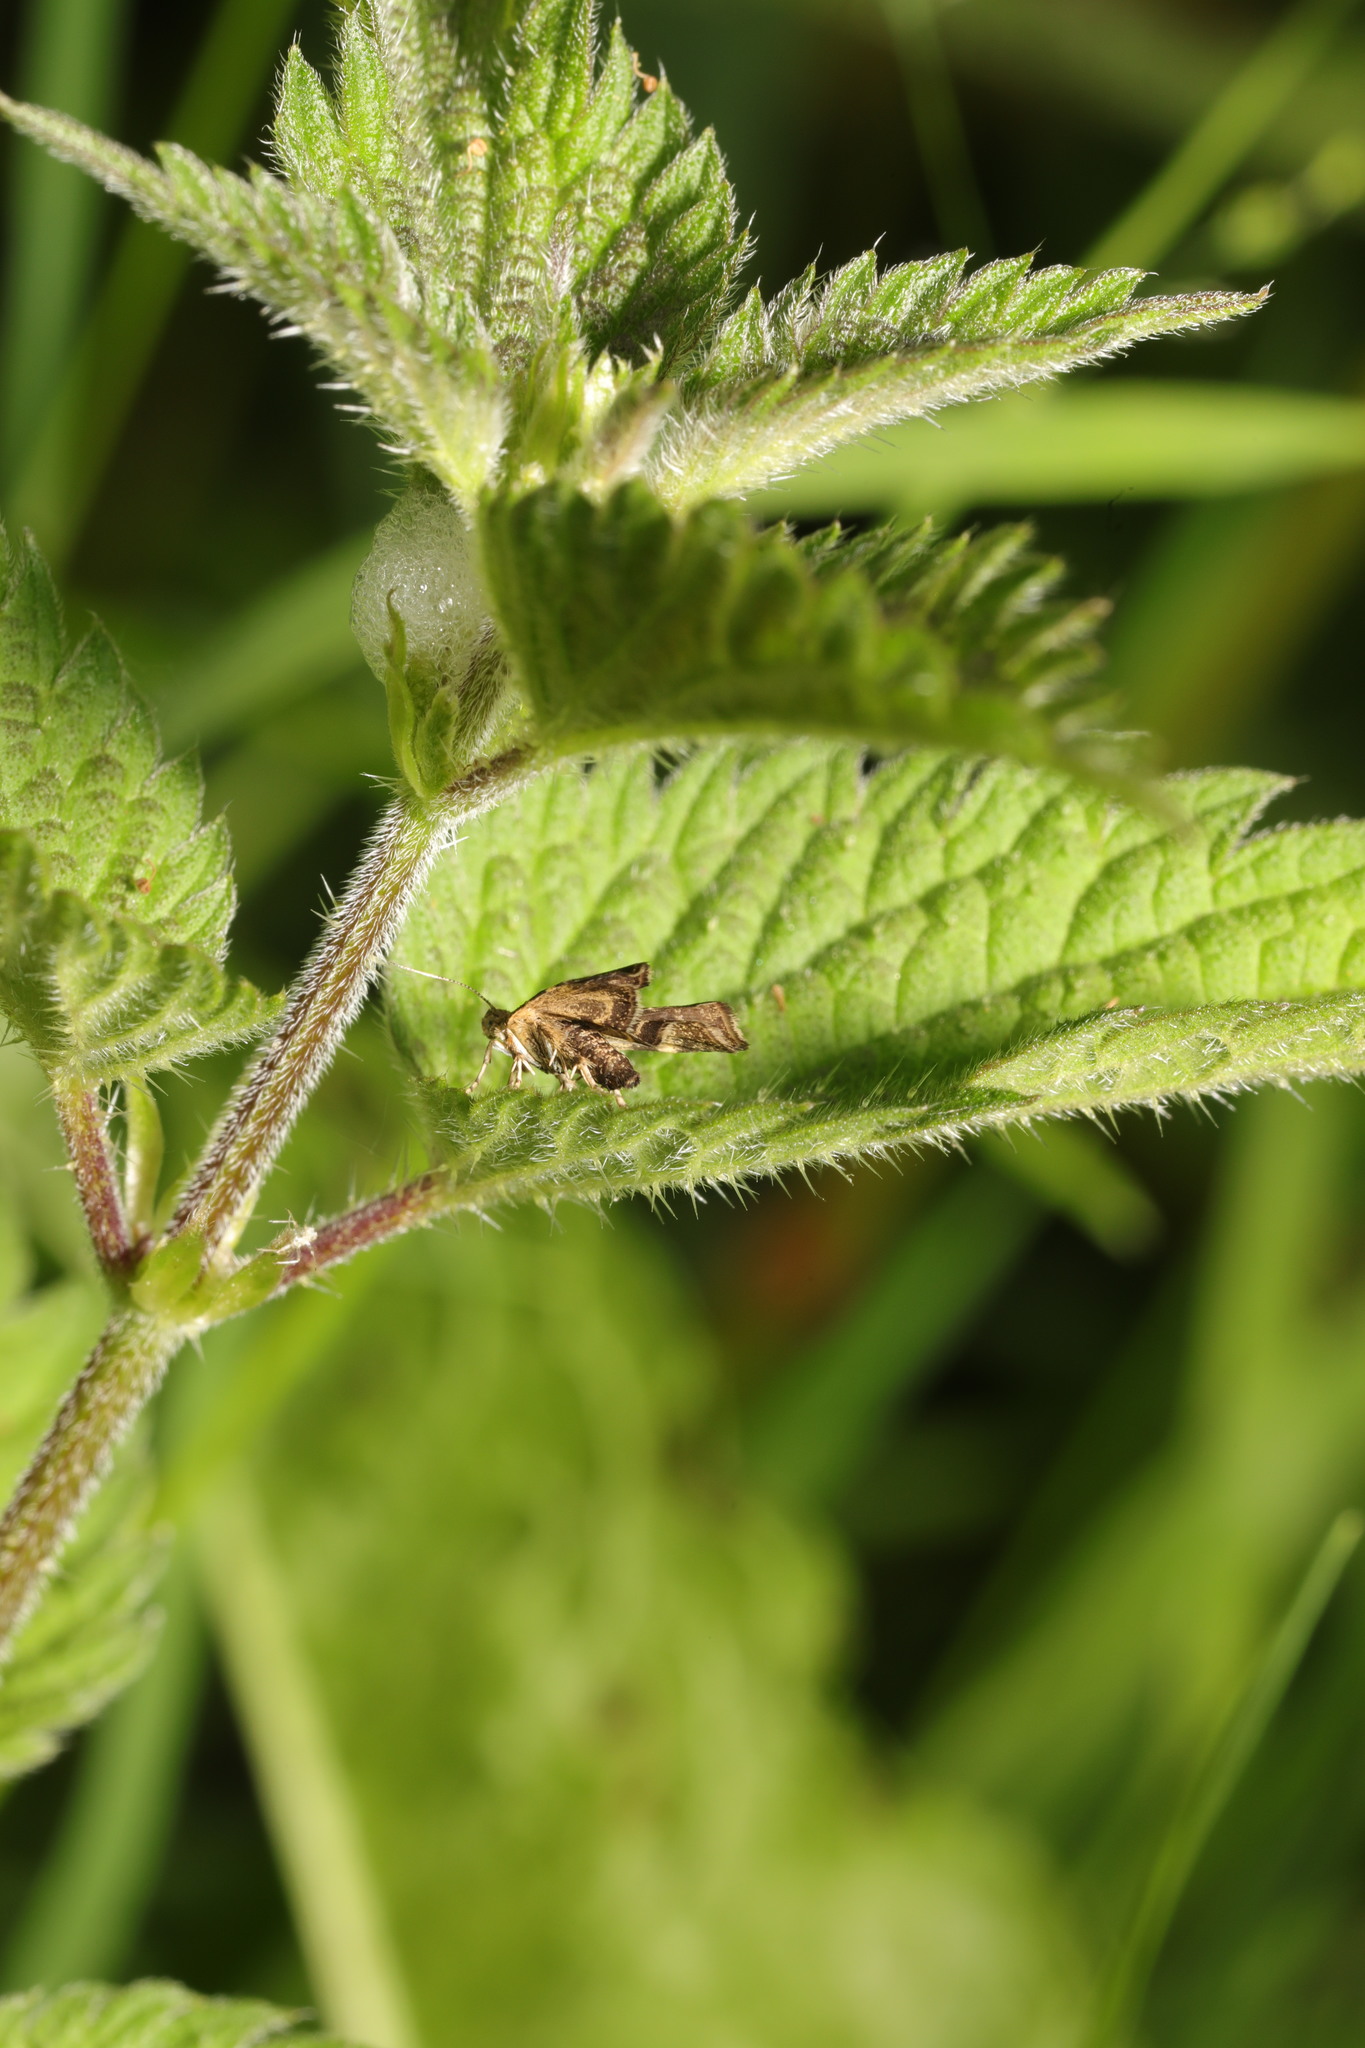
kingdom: Animalia
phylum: Arthropoda
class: Insecta
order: Lepidoptera
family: Choreutidae
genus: Anthophila
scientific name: Anthophila fabriciana
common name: Nettle-tap
